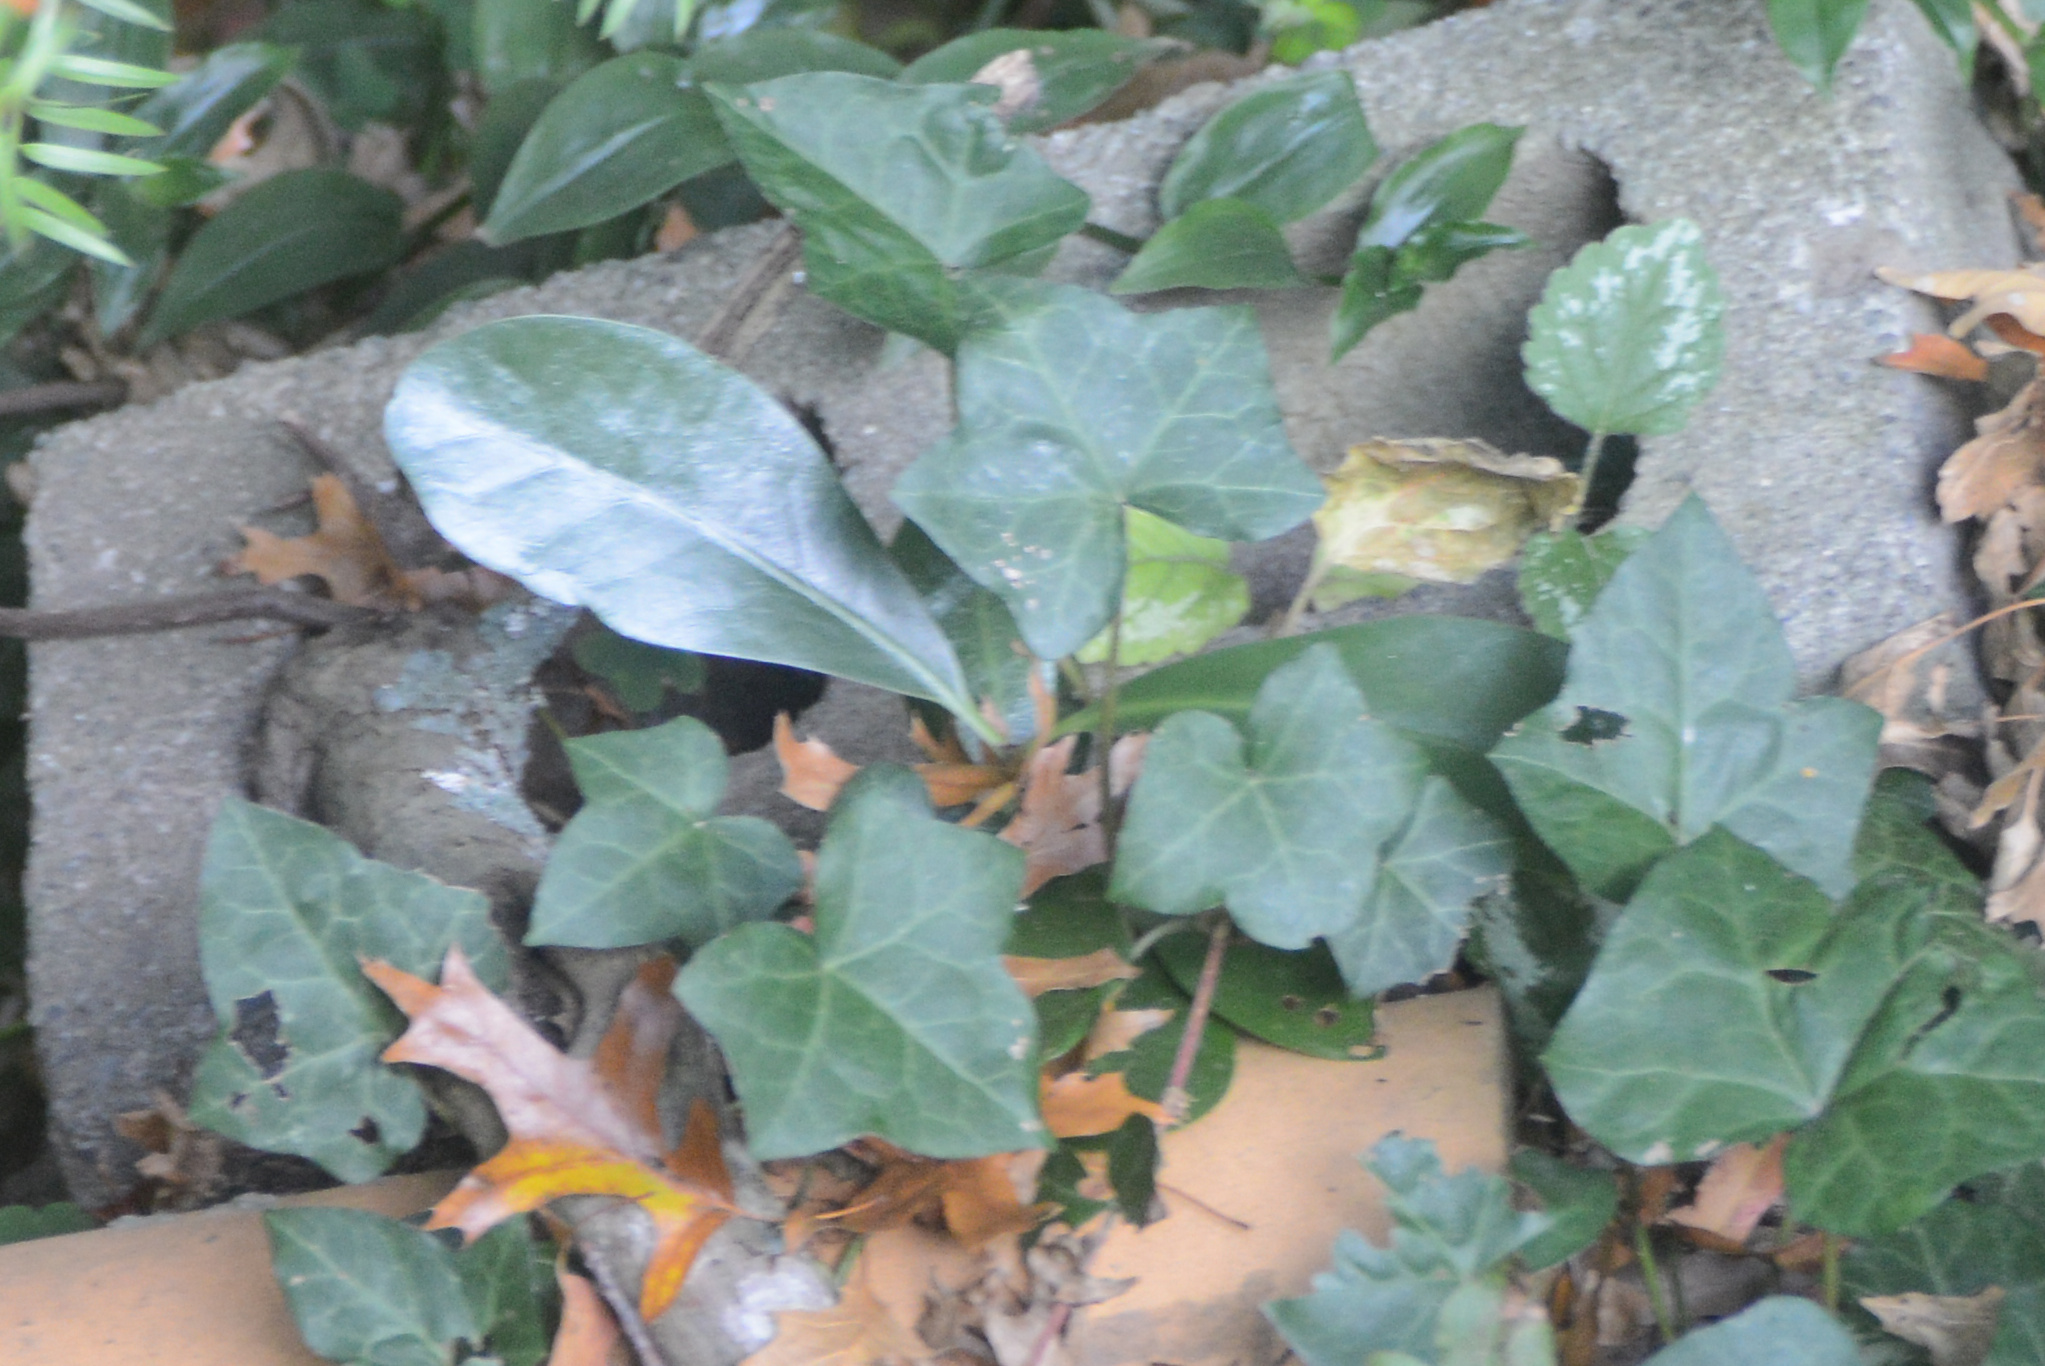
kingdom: Plantae
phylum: Tracheophyta
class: Magnoliopsida
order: Cucurbitales
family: Corynocarpaceae
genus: Corynocarpus
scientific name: Corynocarpus laevigatus
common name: New zealand laurel
